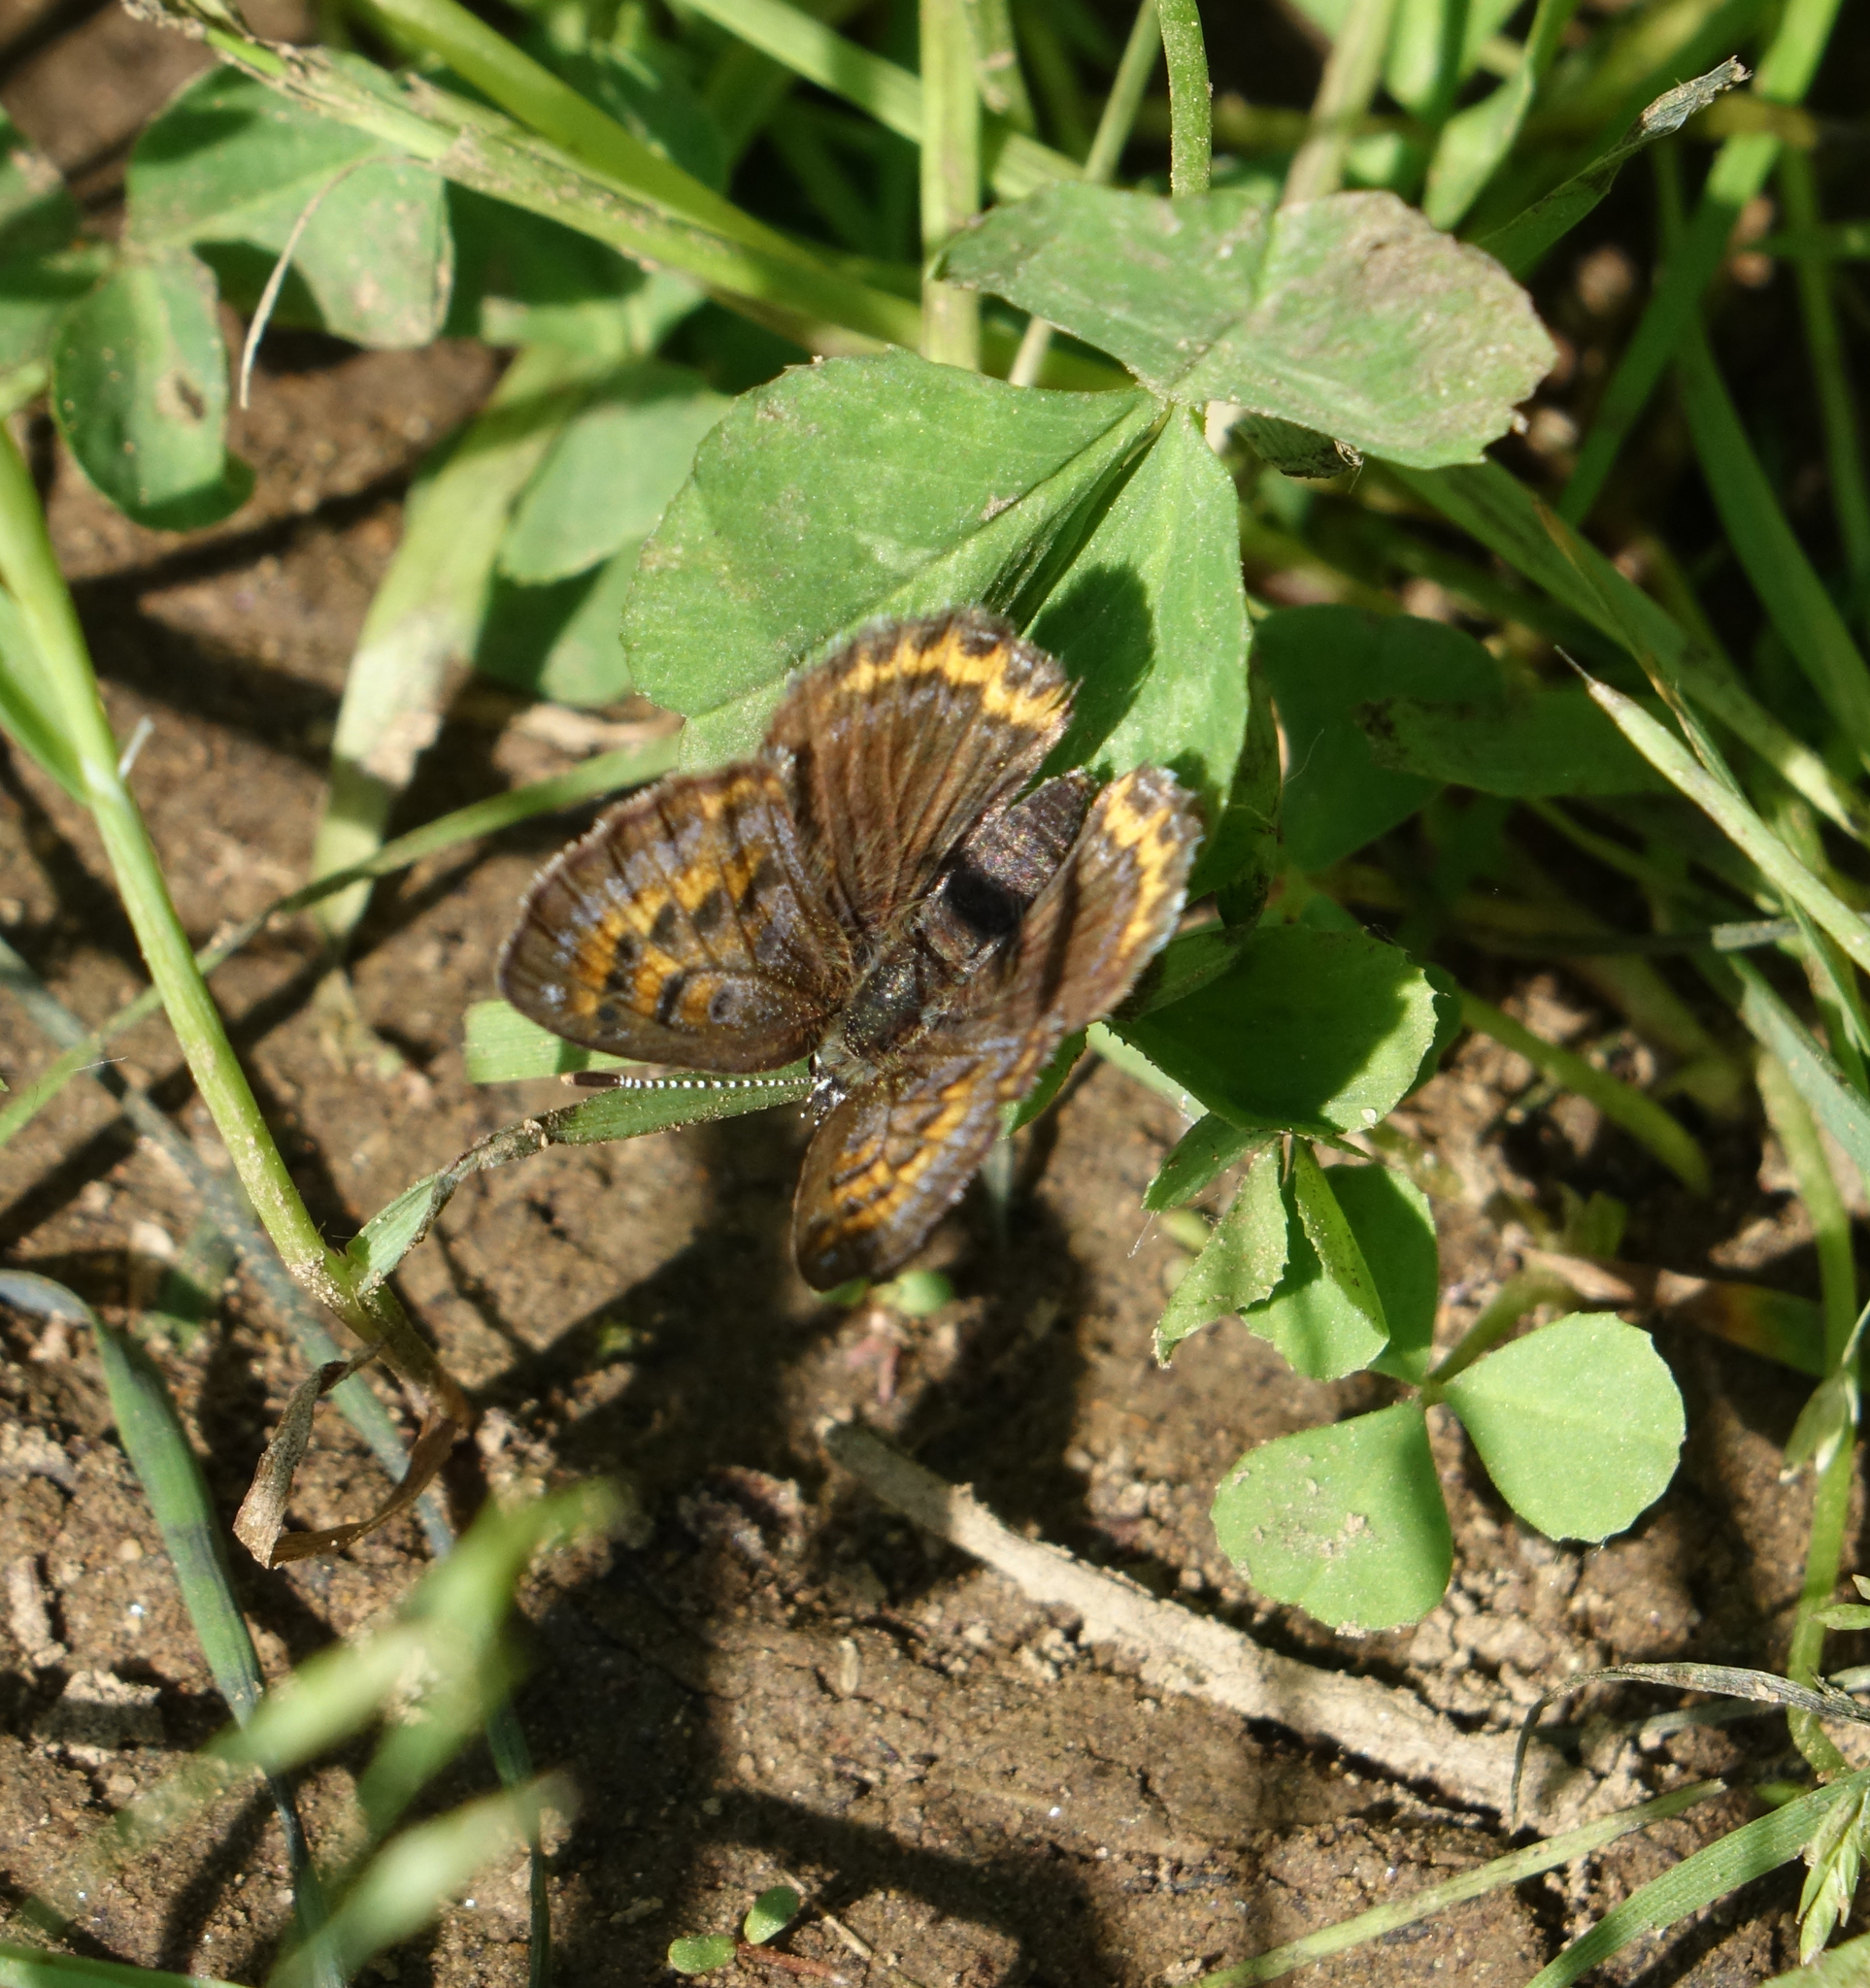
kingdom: Animalia
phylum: Arthropoda
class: Insecta
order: Lepidoptera
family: Lycaenidae
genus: Helleia
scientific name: Helleia helle
